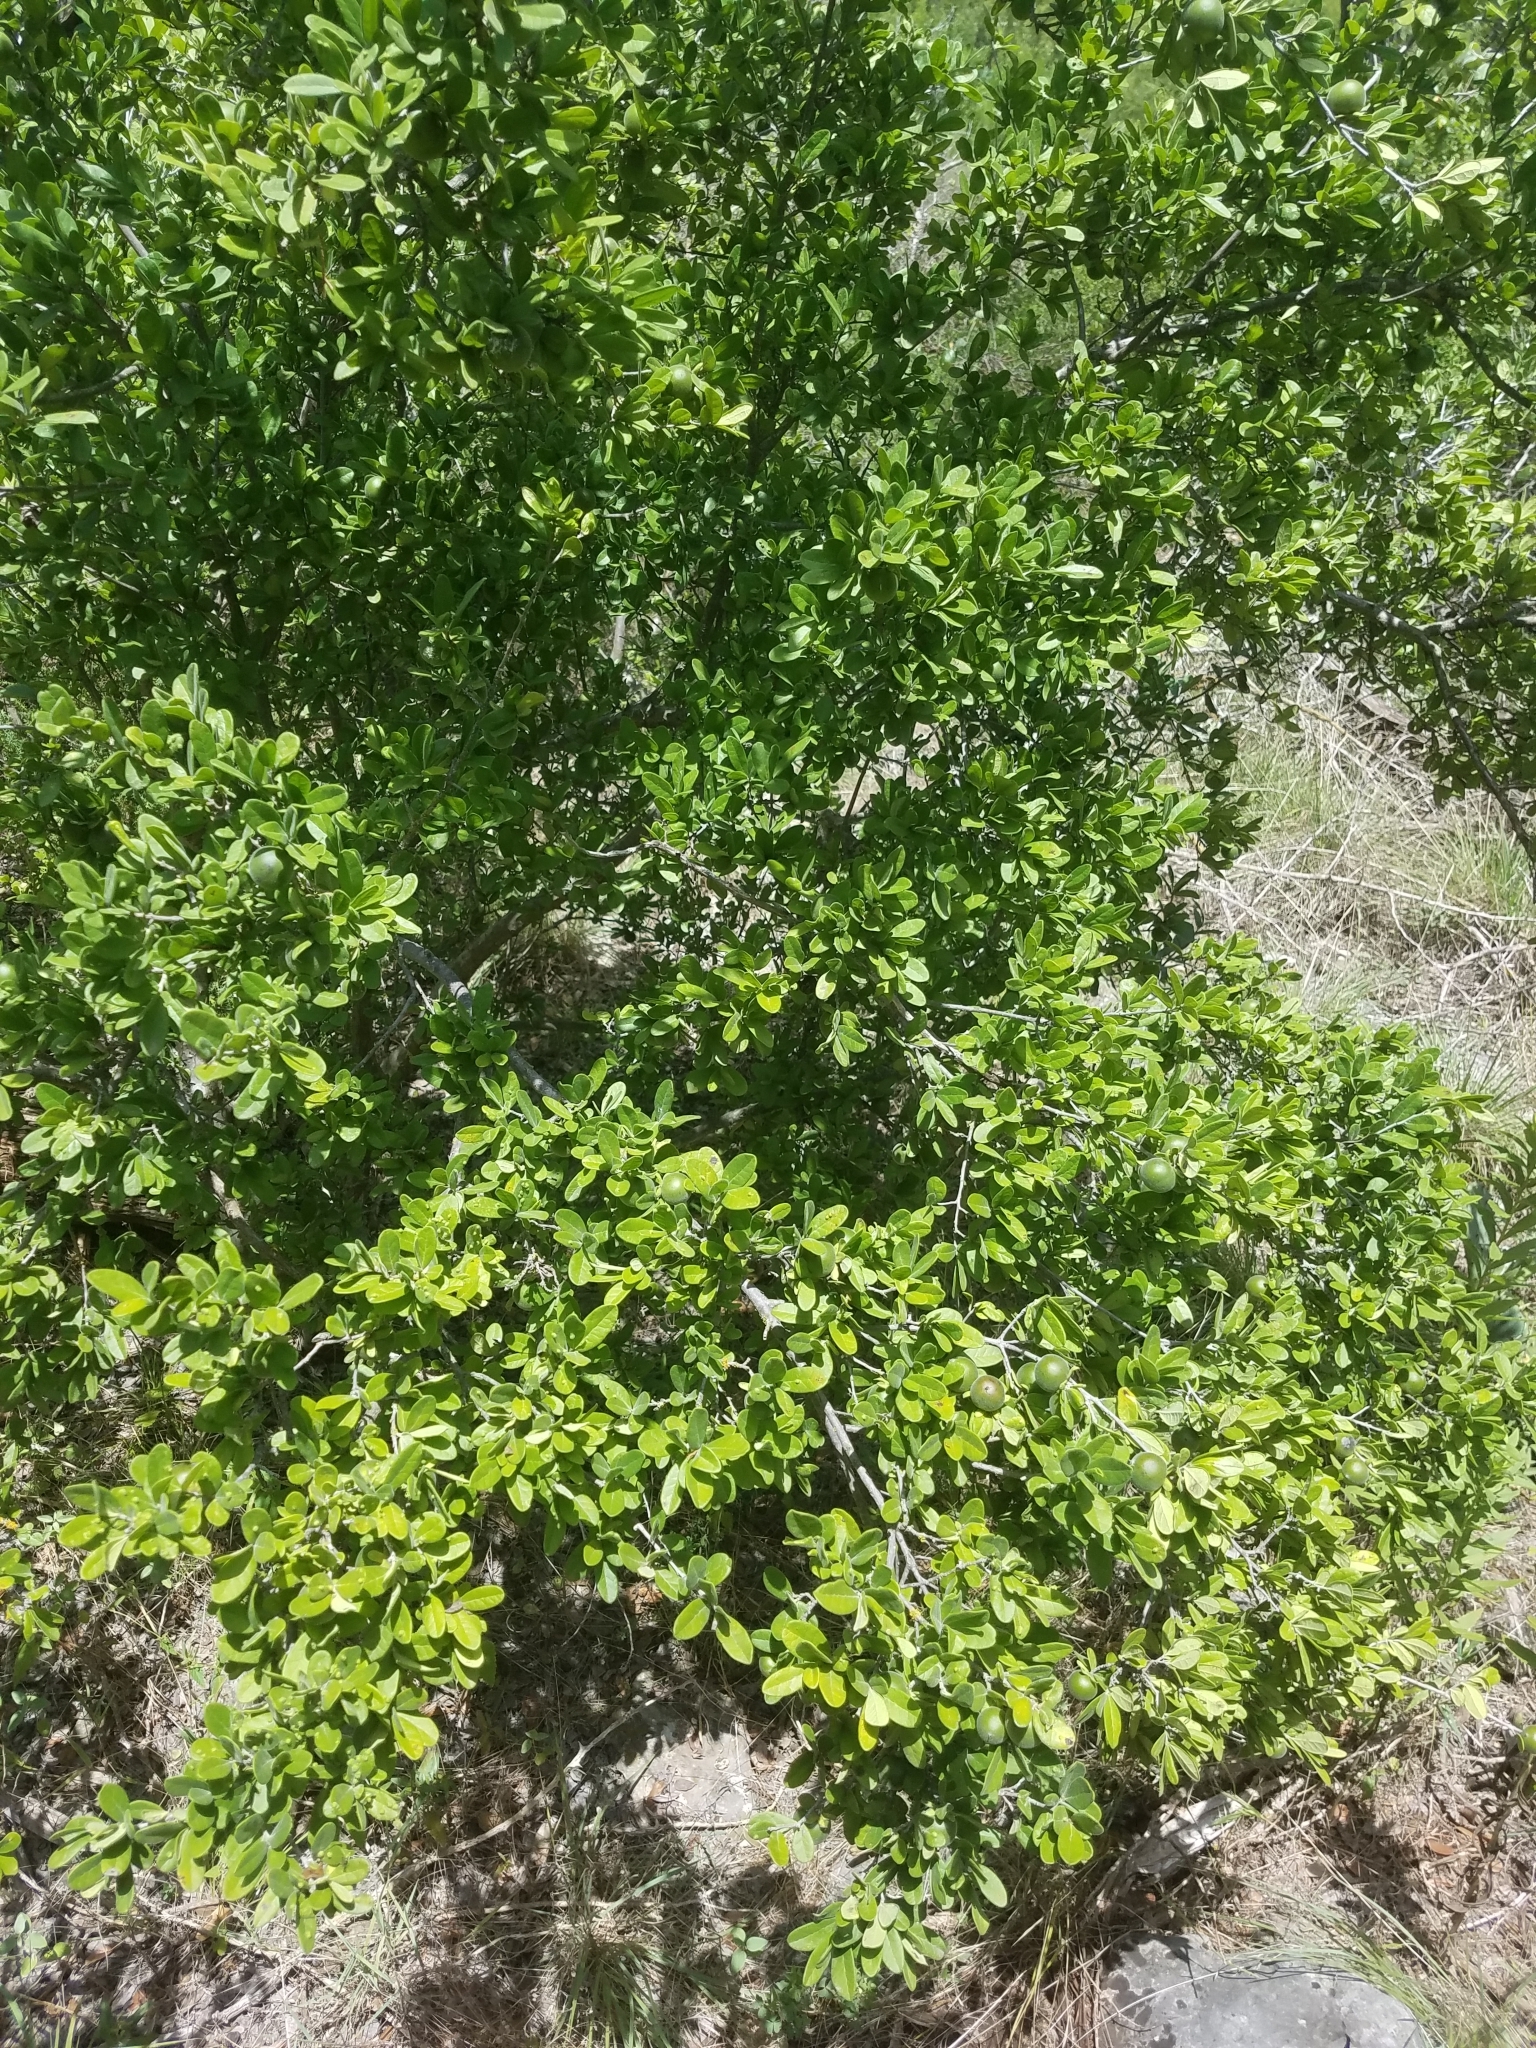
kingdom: Plantae
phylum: Tracheophyta
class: Magnoliopsida
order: Ericales
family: Ebenaceae
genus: Diospyros
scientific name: Diospyros texana
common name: Texas persimmon
